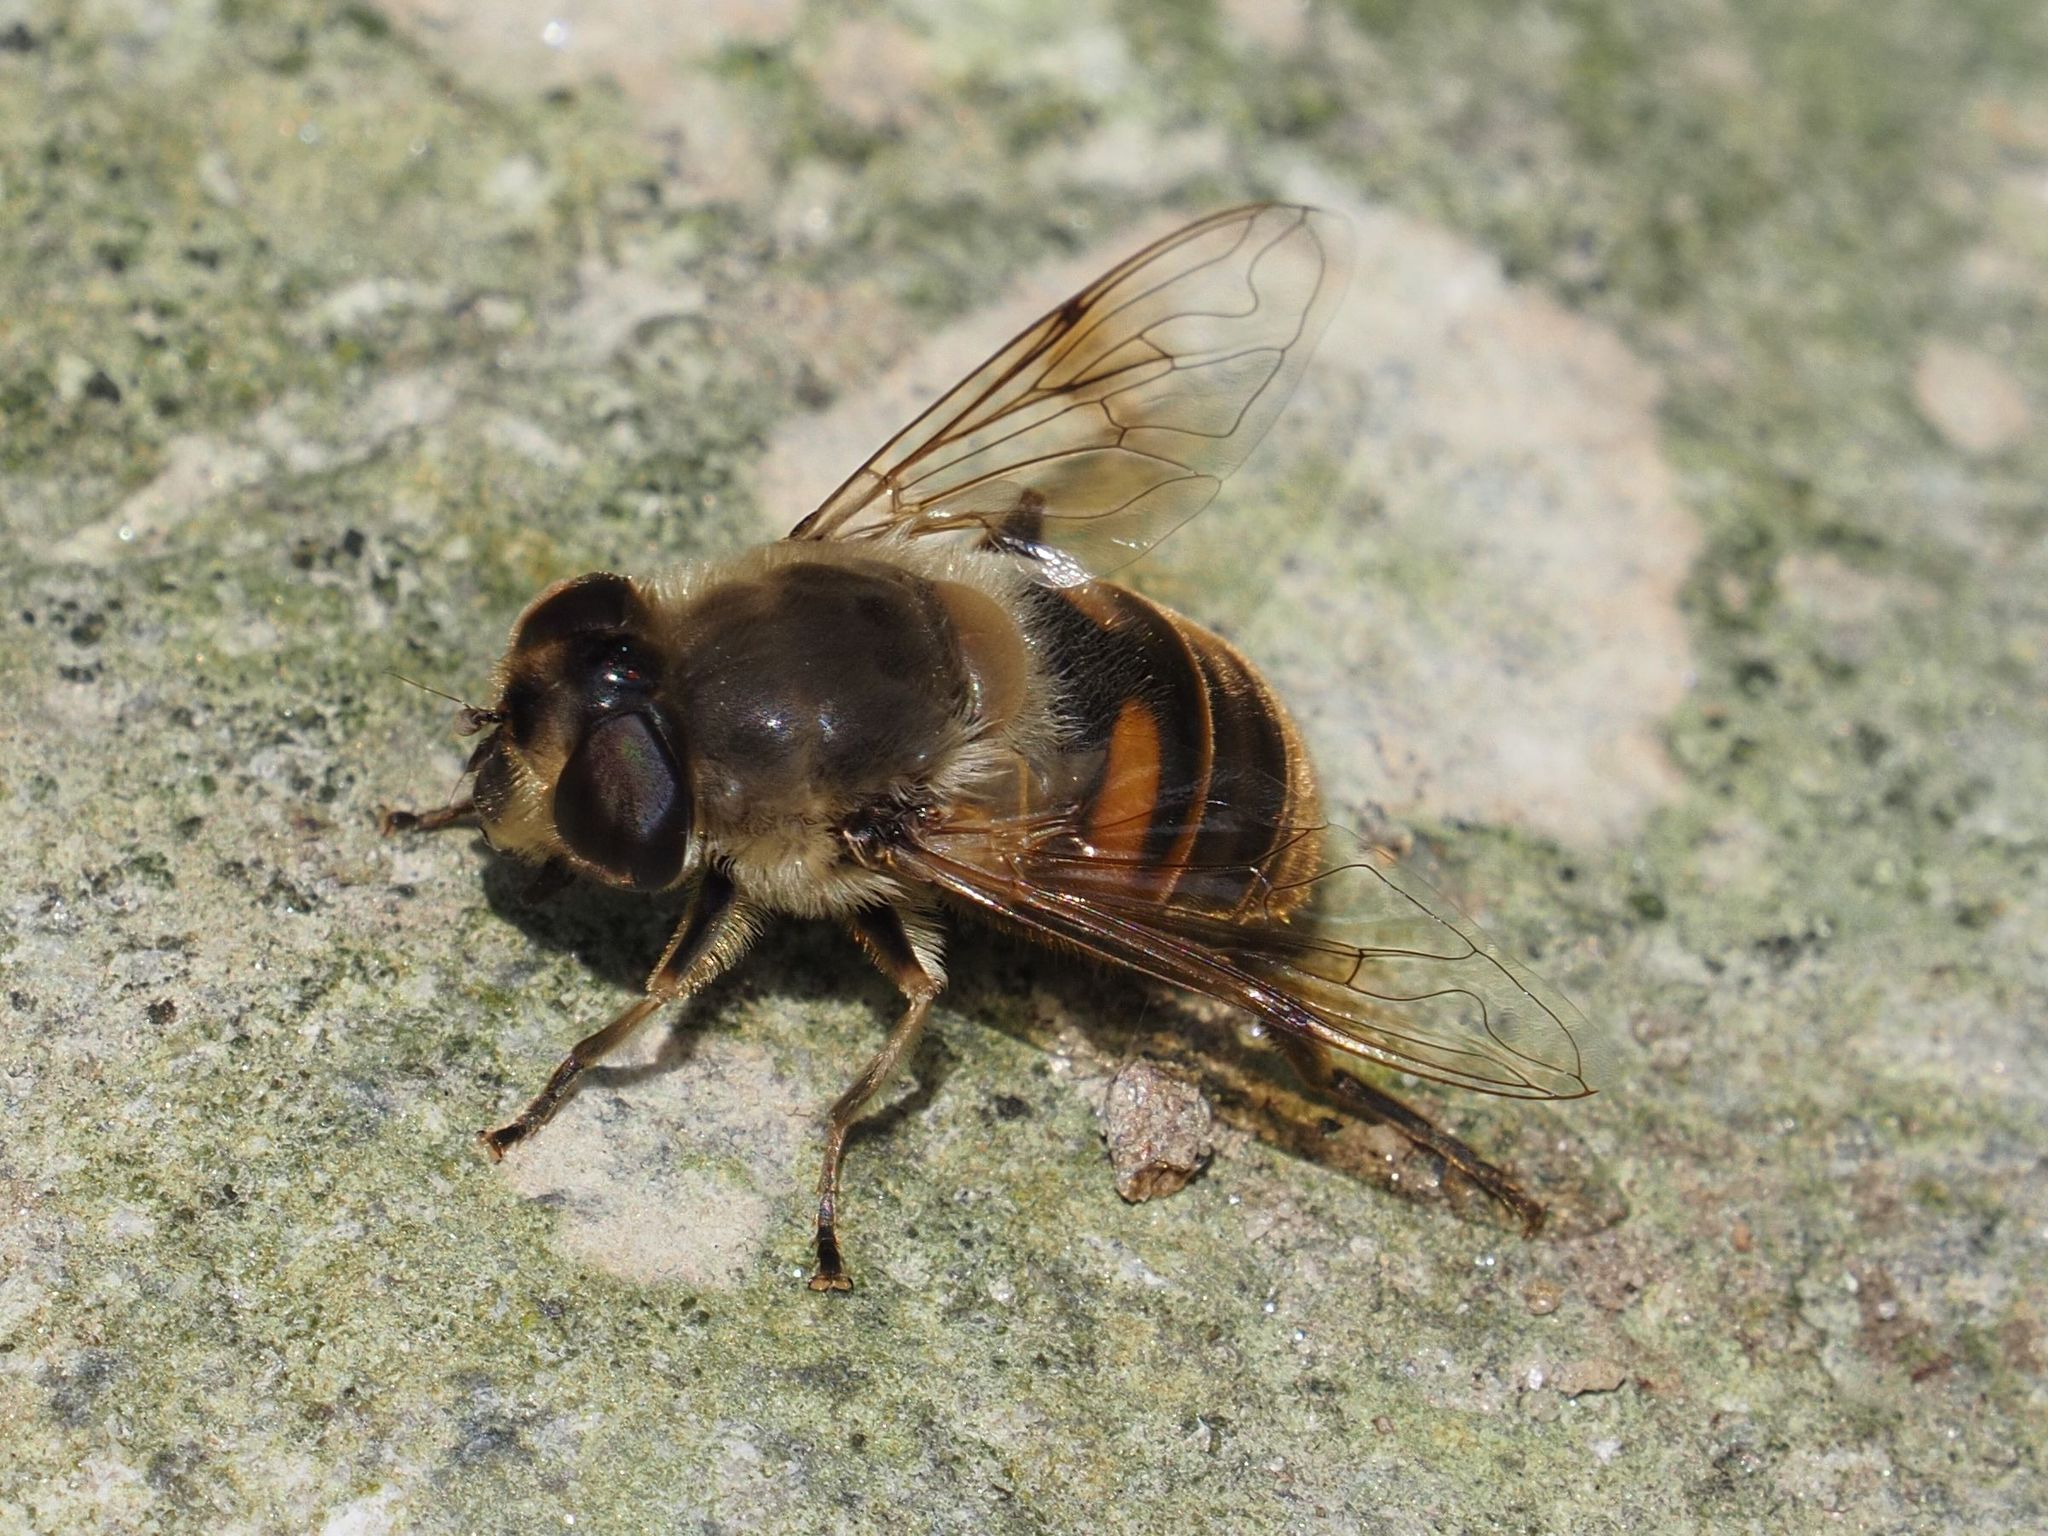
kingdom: Animalia
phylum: Arthropoda
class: Insecta
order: Diptera
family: Syrphidae
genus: Eristalis
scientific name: Eristalis tenax
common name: Drone fly
